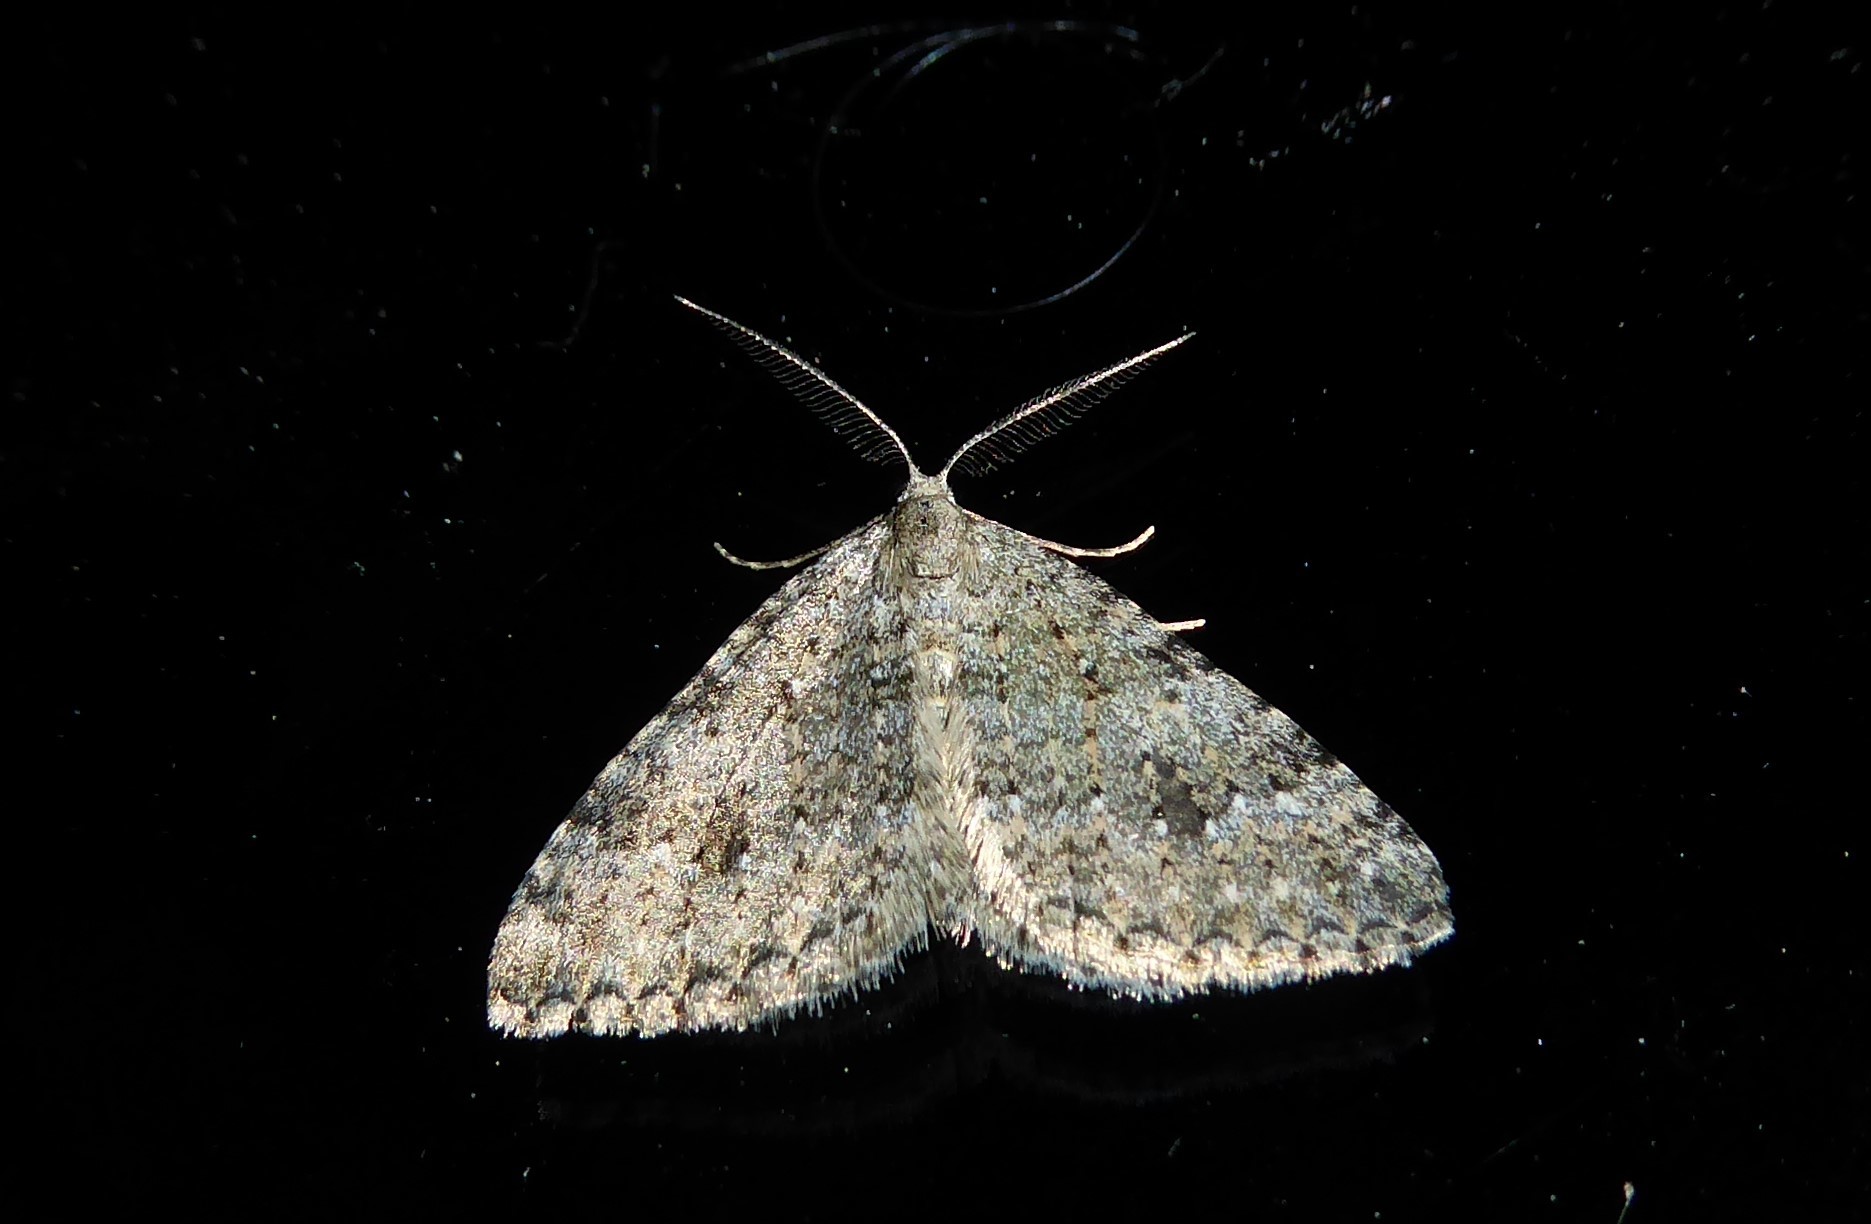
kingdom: Animalia
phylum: Arthropoda
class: Insecta
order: Lepidoptera
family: Geometridae
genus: Helastia
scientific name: Helastia corcularia
